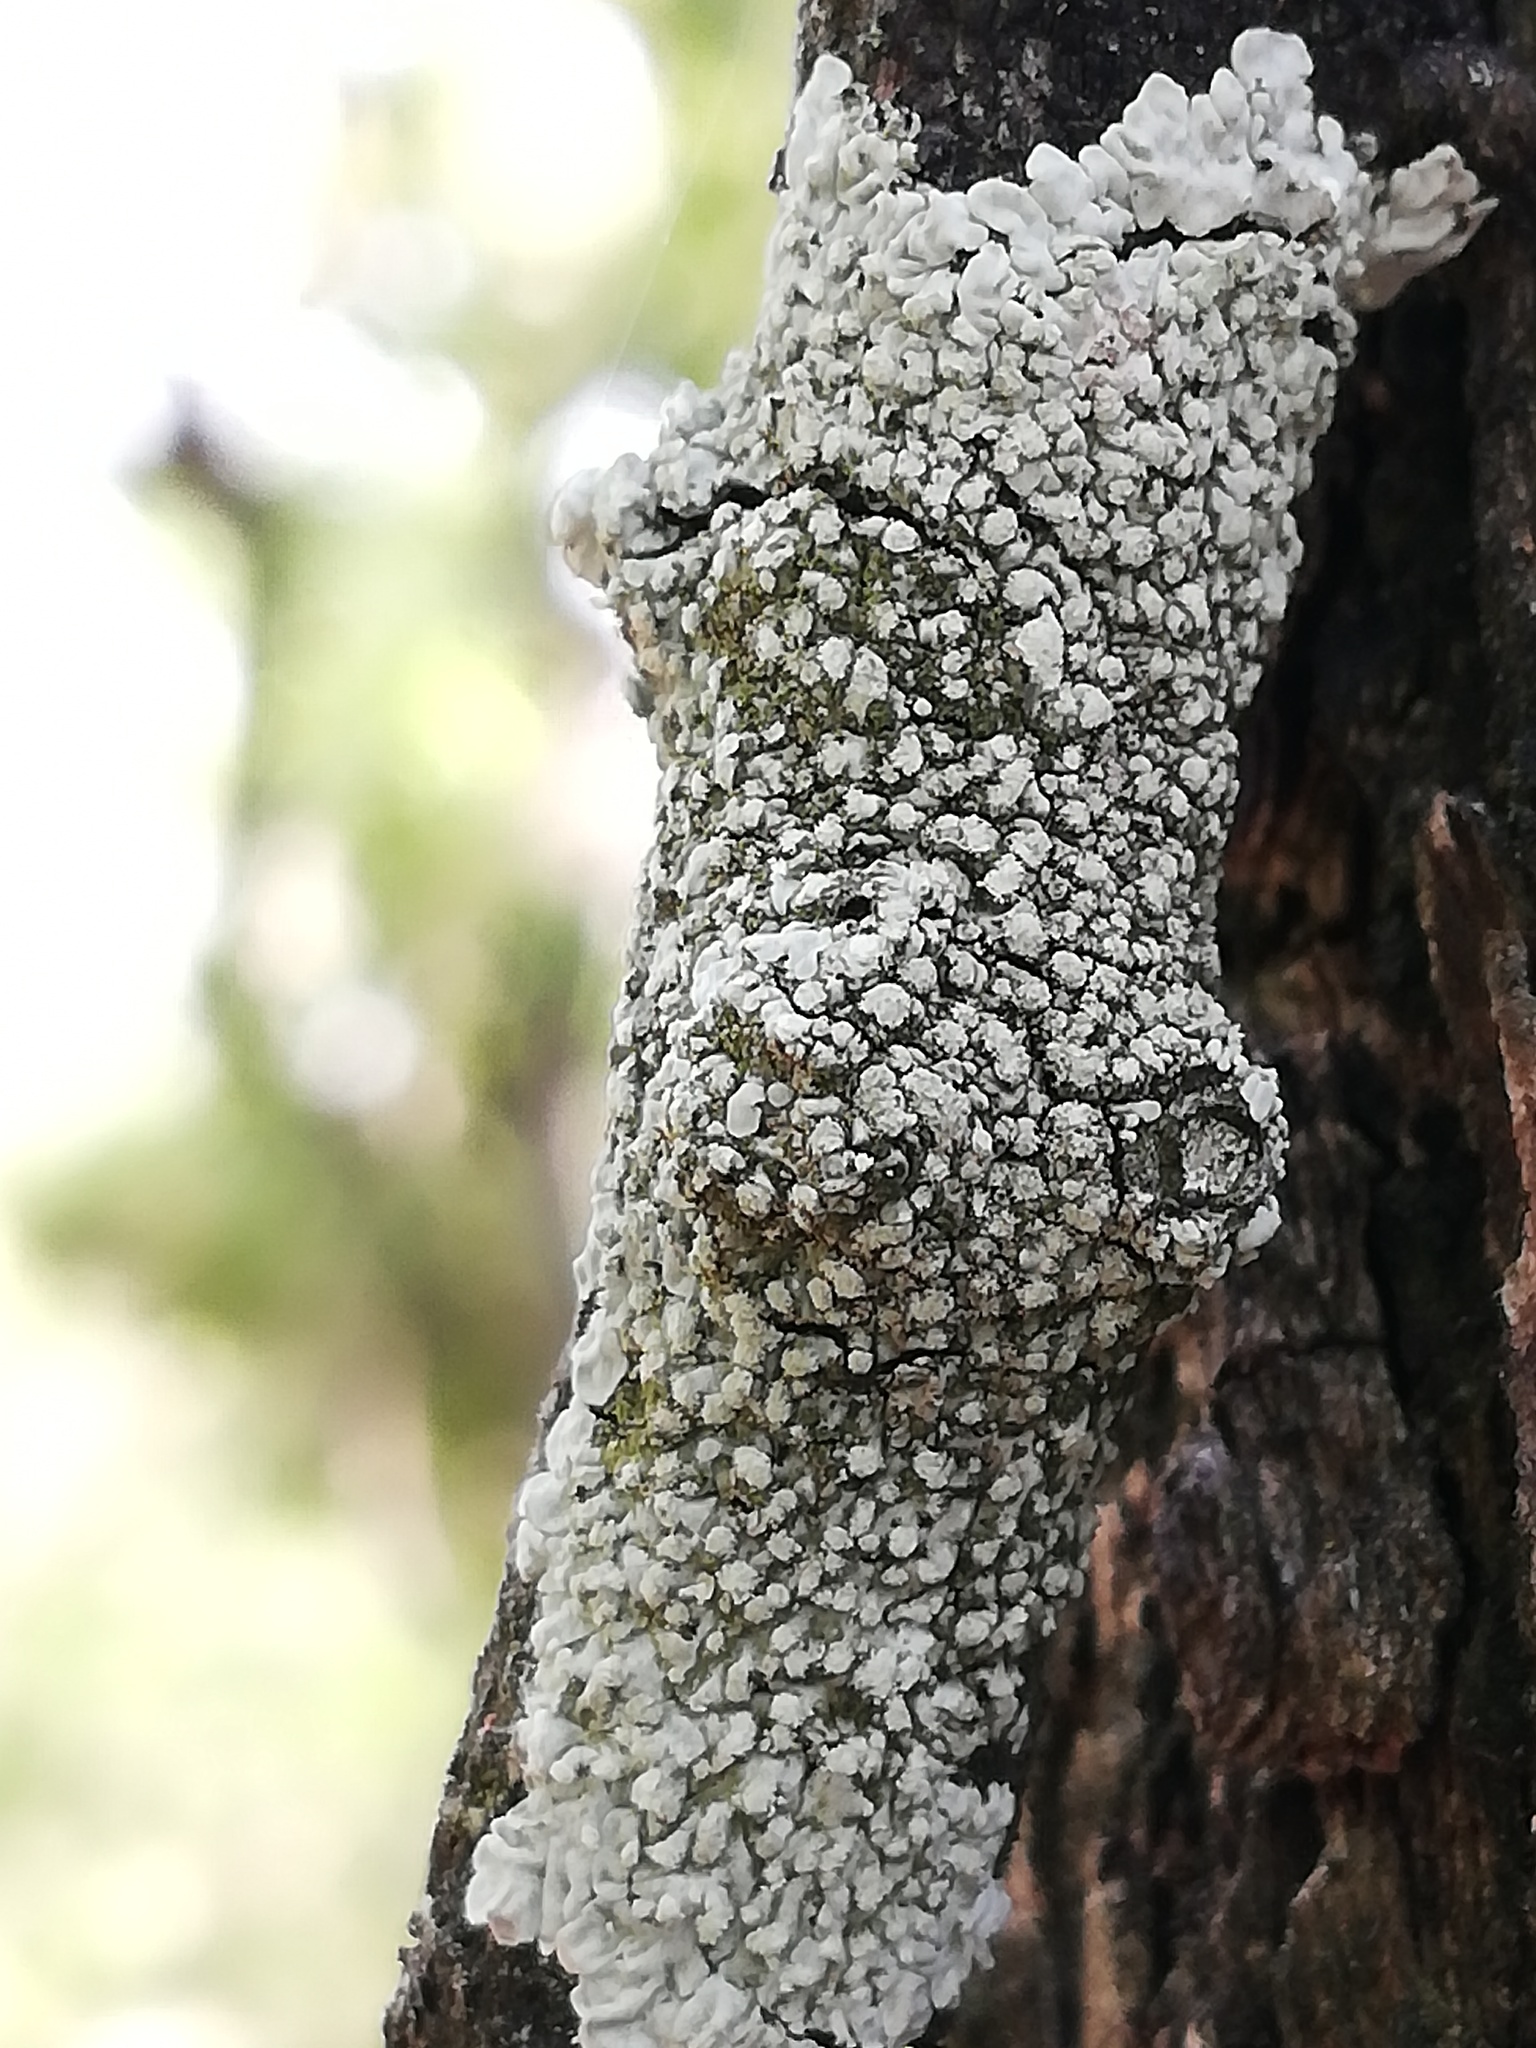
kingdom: Fungi
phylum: Ascomycota
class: Lecanoromycetes
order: Caliciales
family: Caliciaceae
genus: Dirinaria
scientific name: Dirinaria applanata
